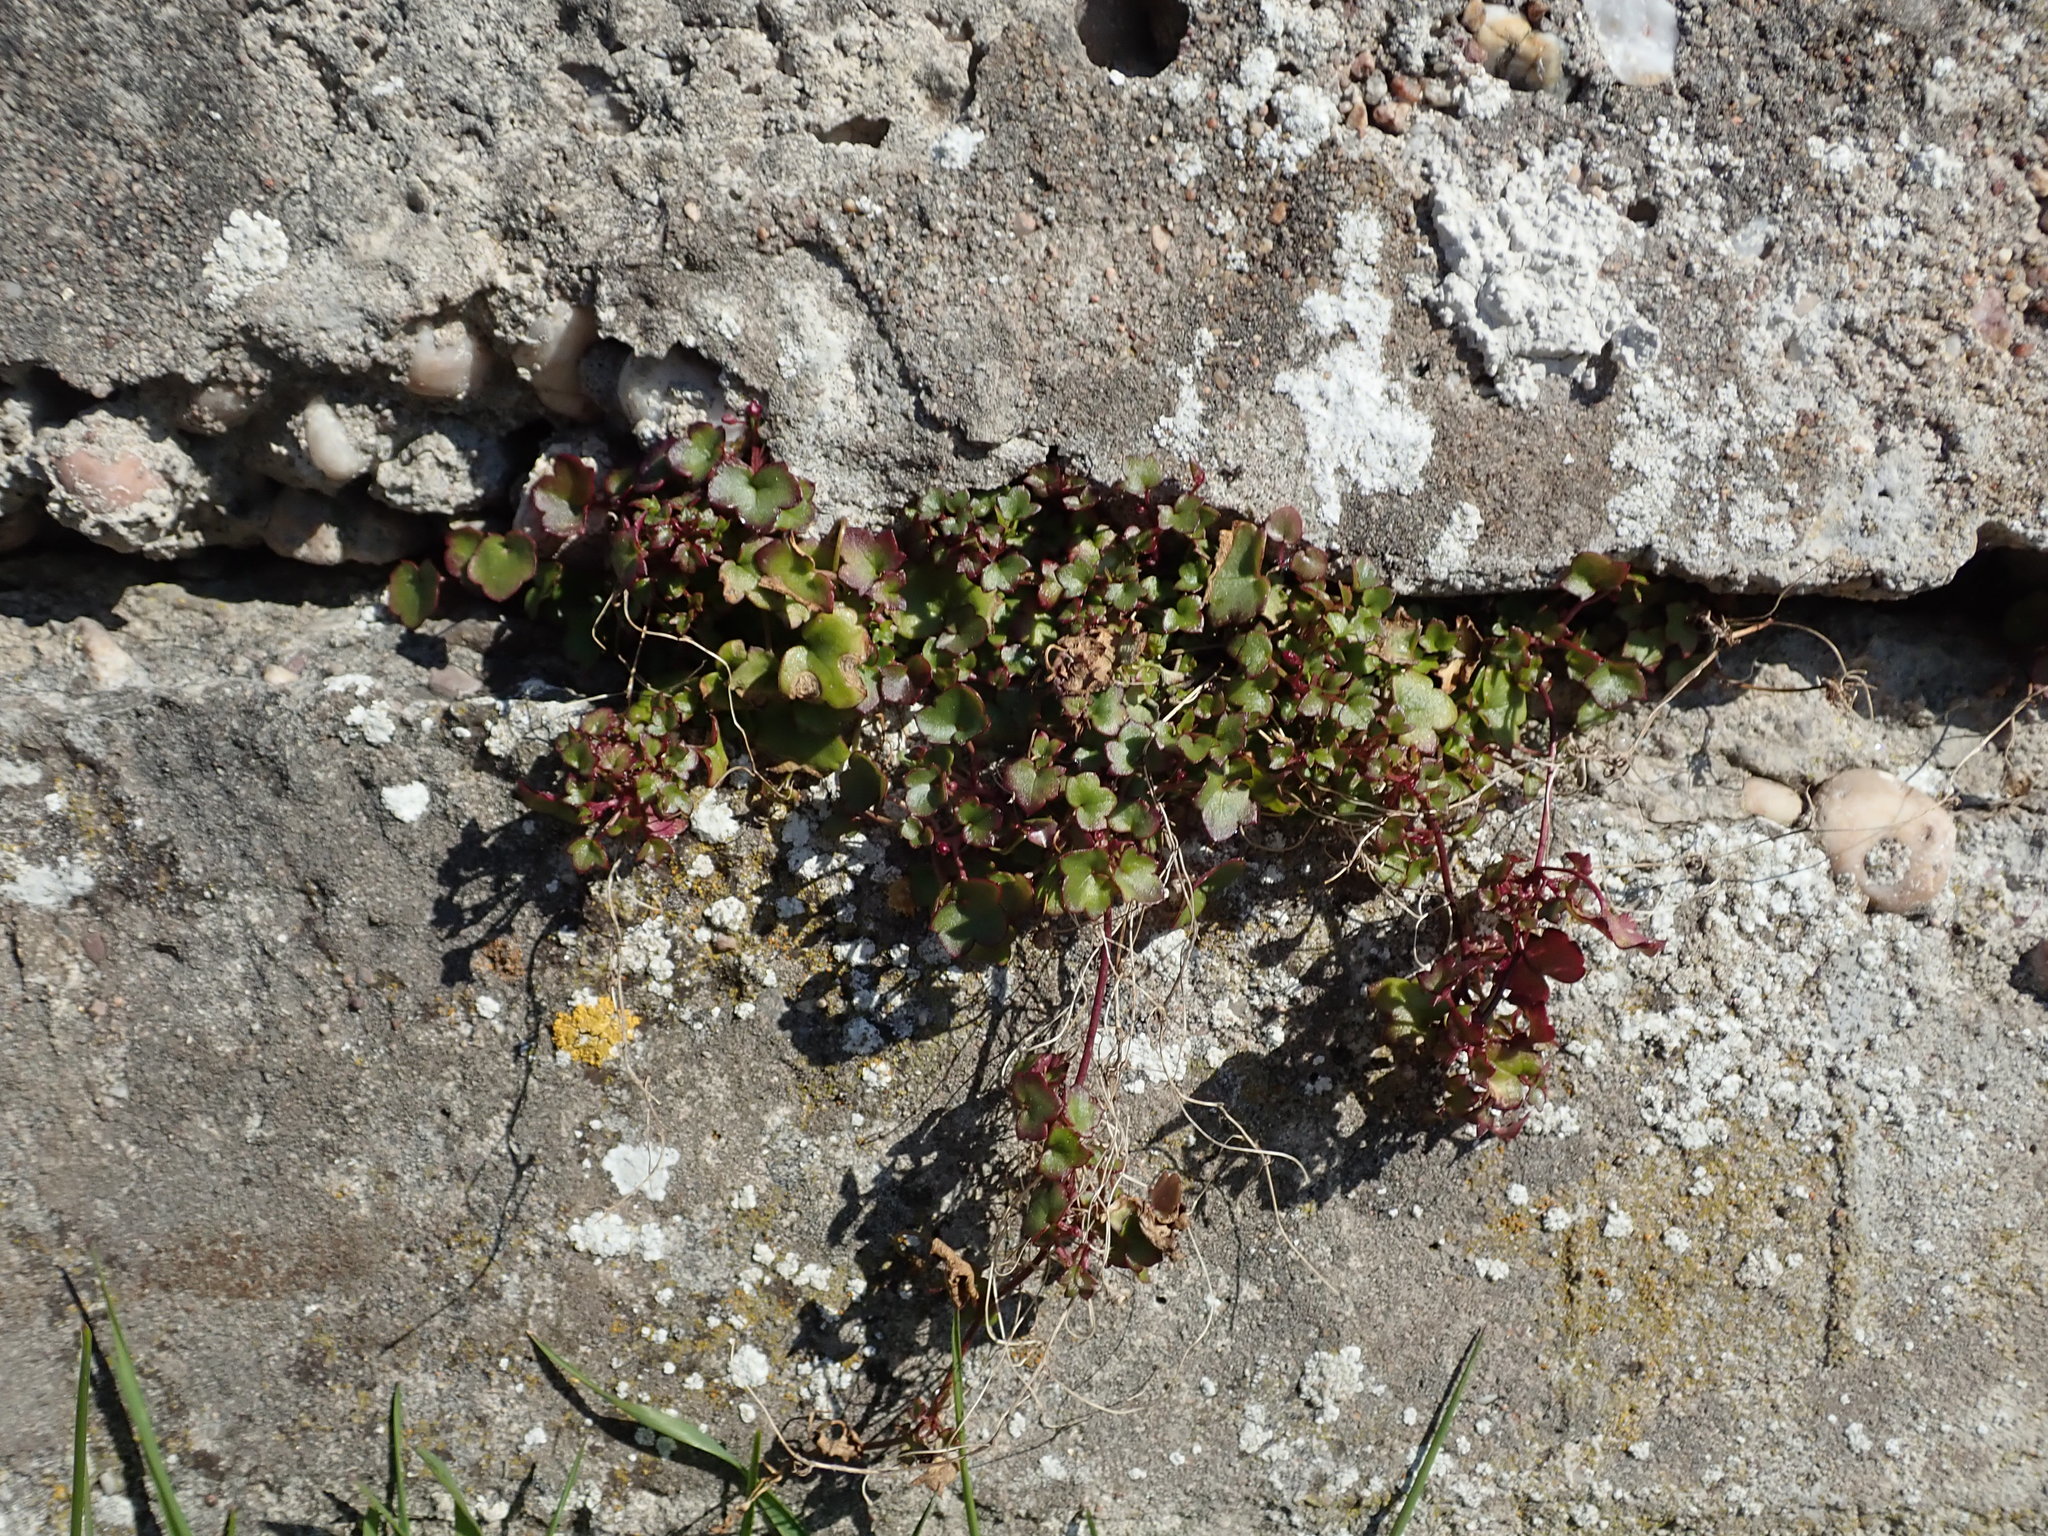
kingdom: Plantae
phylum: Tracheophyta
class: Magnoliopsida
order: Lamiales
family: Plantaginaceae
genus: Cymbalaria
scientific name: Cymbalaria muralis
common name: Ivy-leaved toadflax
